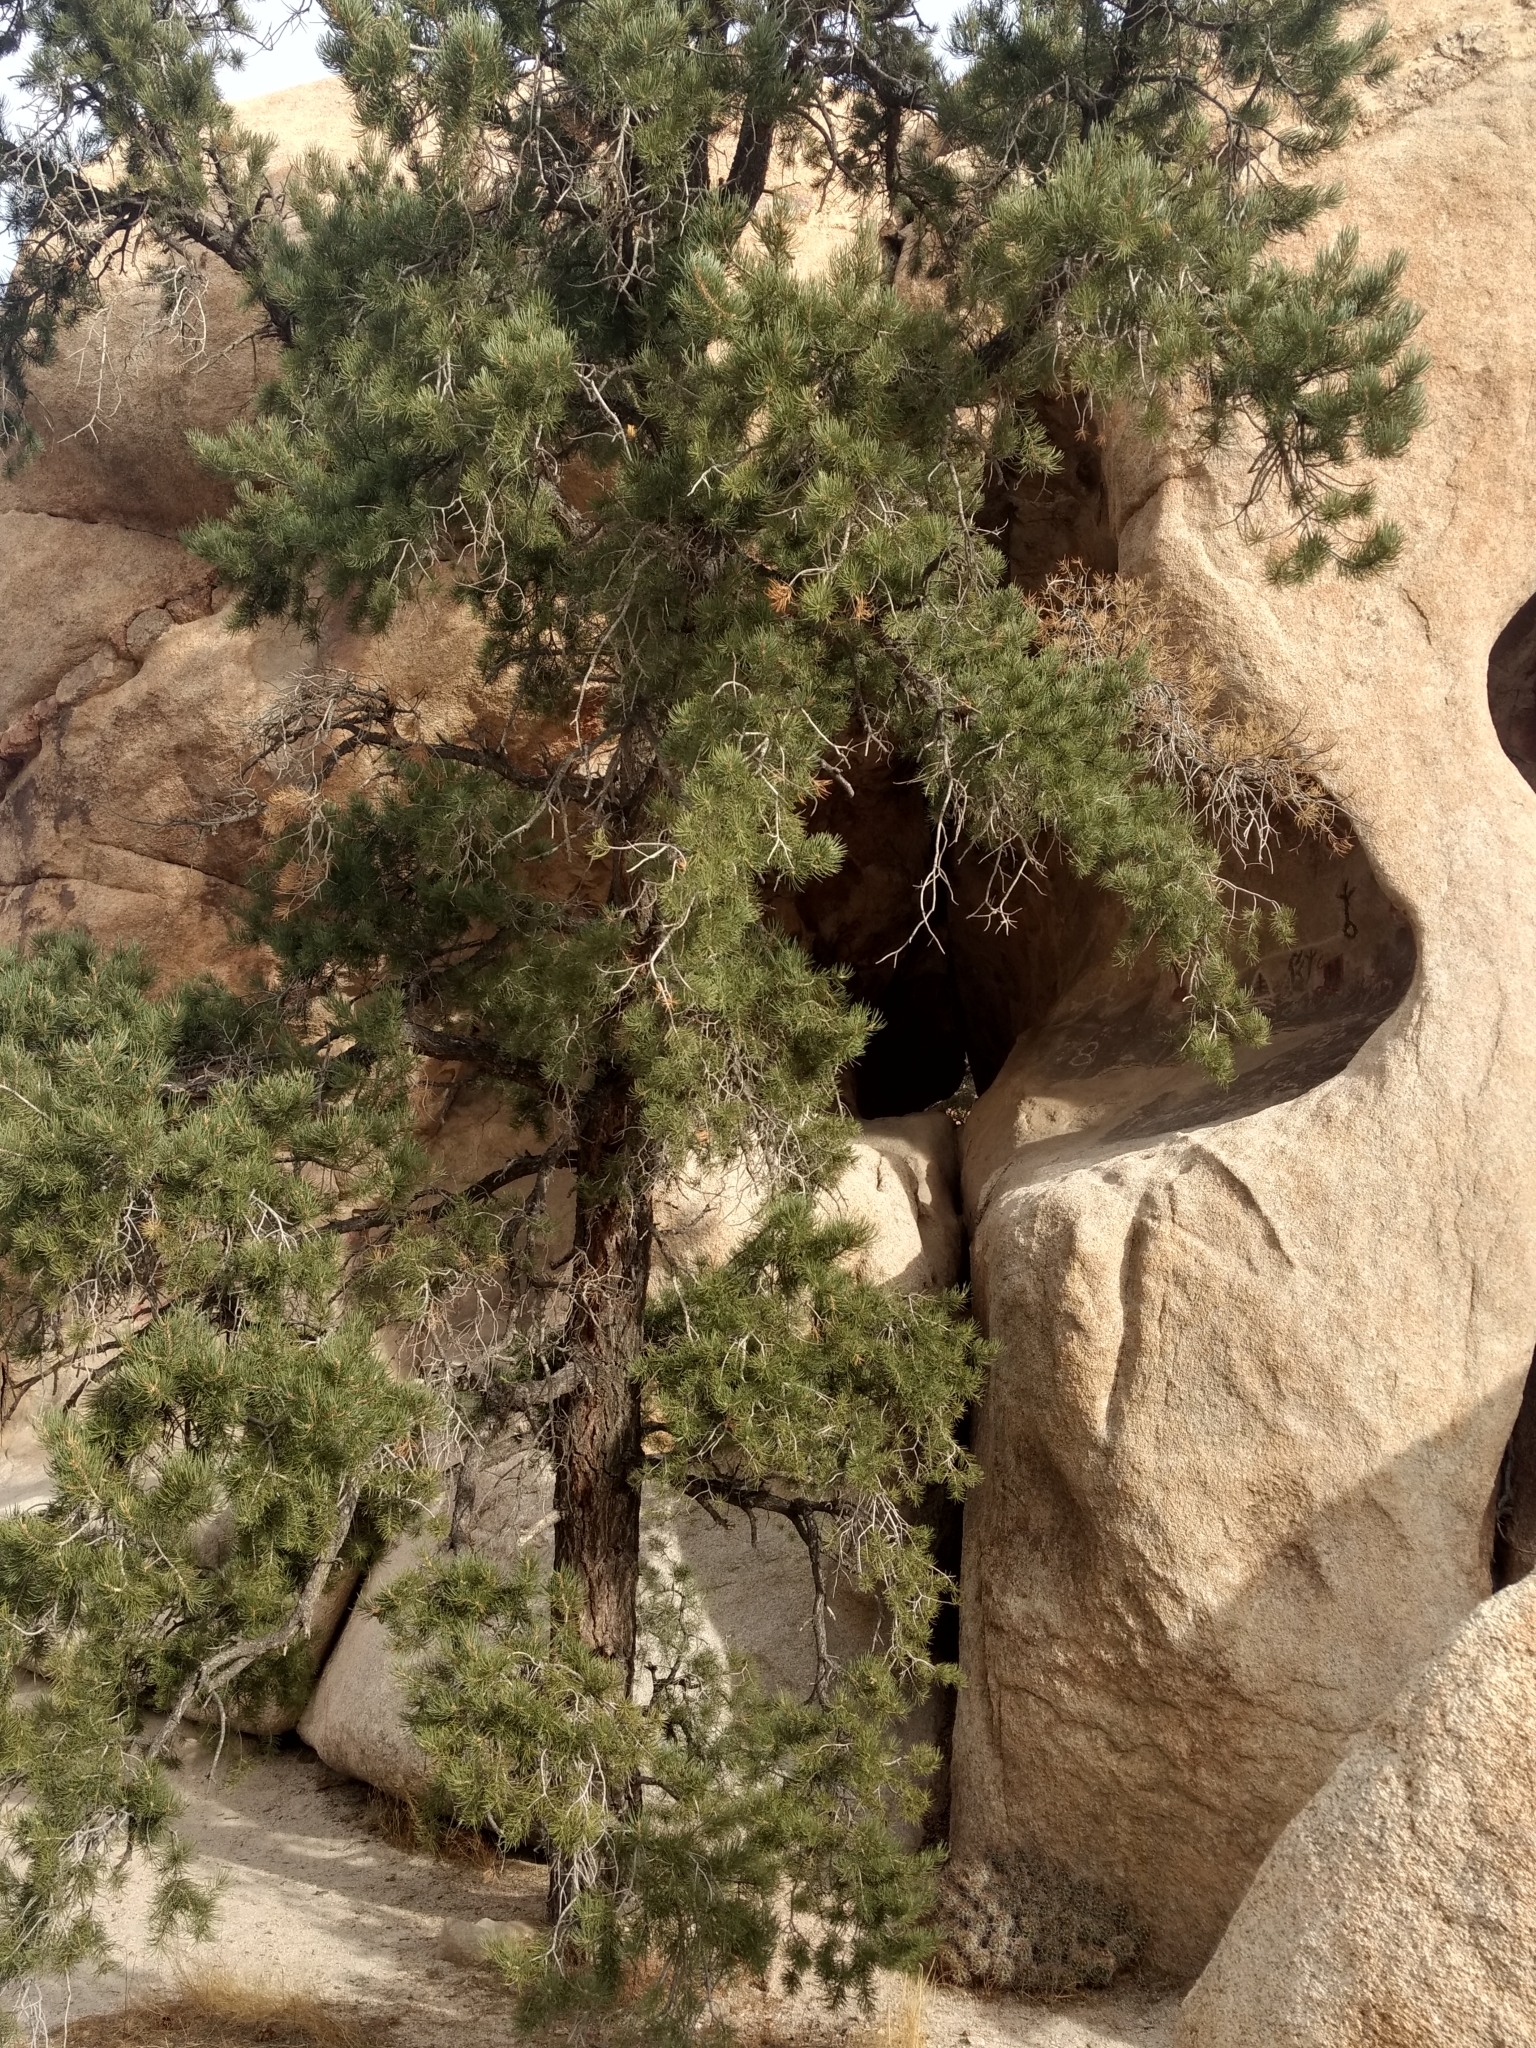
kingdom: Plantae
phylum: Tracheophyta
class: Pinopsida
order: Pinales
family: Pinaceae
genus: Pinus
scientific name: Pinus monophylla
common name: One-leaved nut pine
